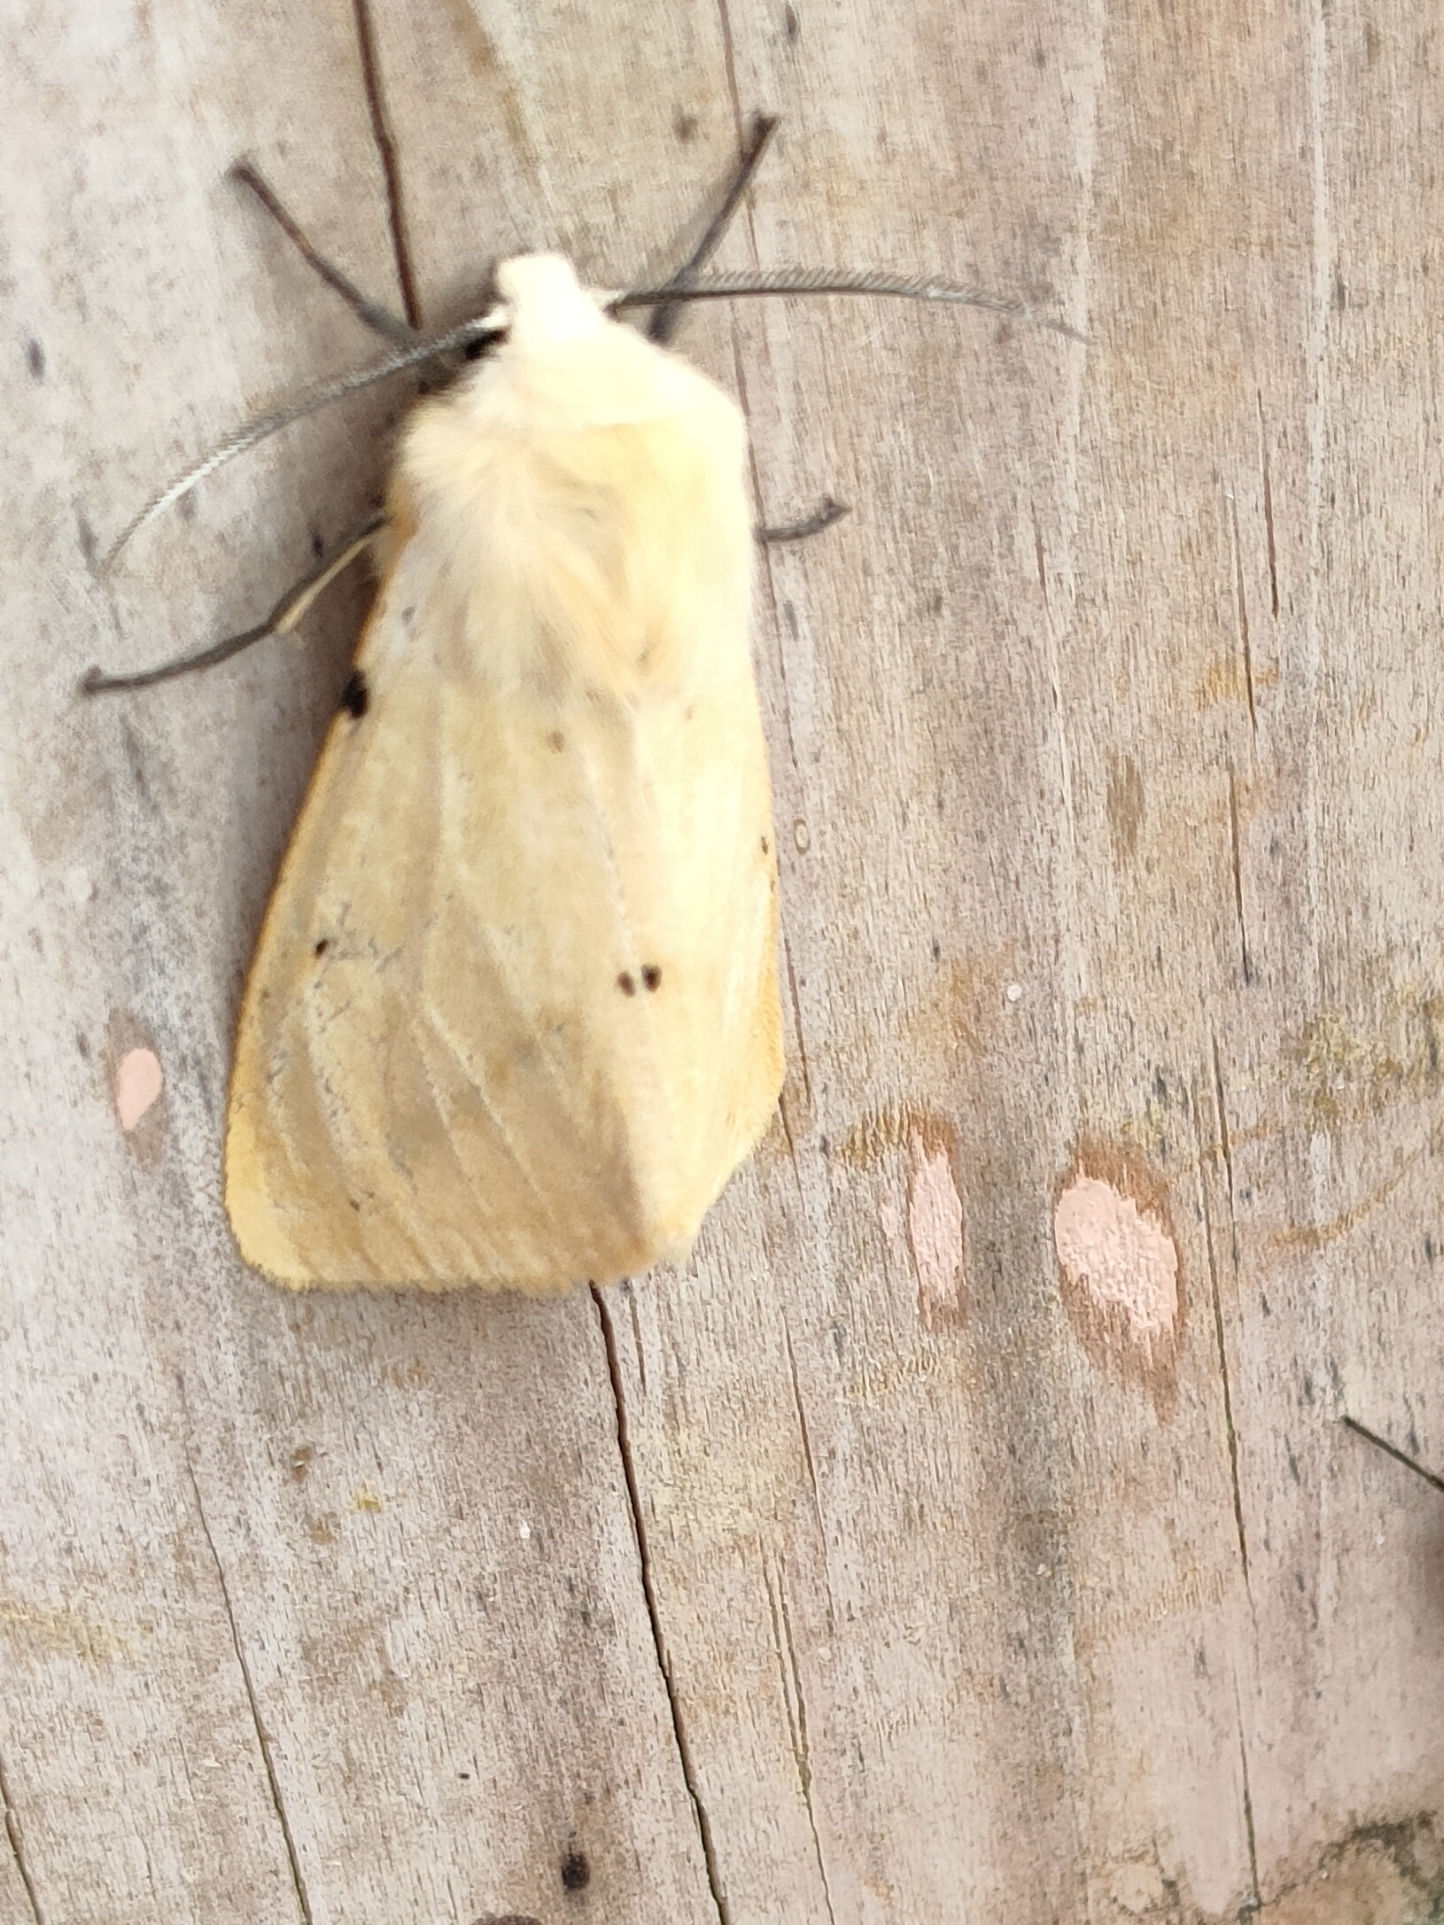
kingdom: Animalia
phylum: Arthropoda
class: Insecta
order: Lepidoptera
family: Erebidae
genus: Spilarctia
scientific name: Spilarctia lutea
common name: Buff ermine
